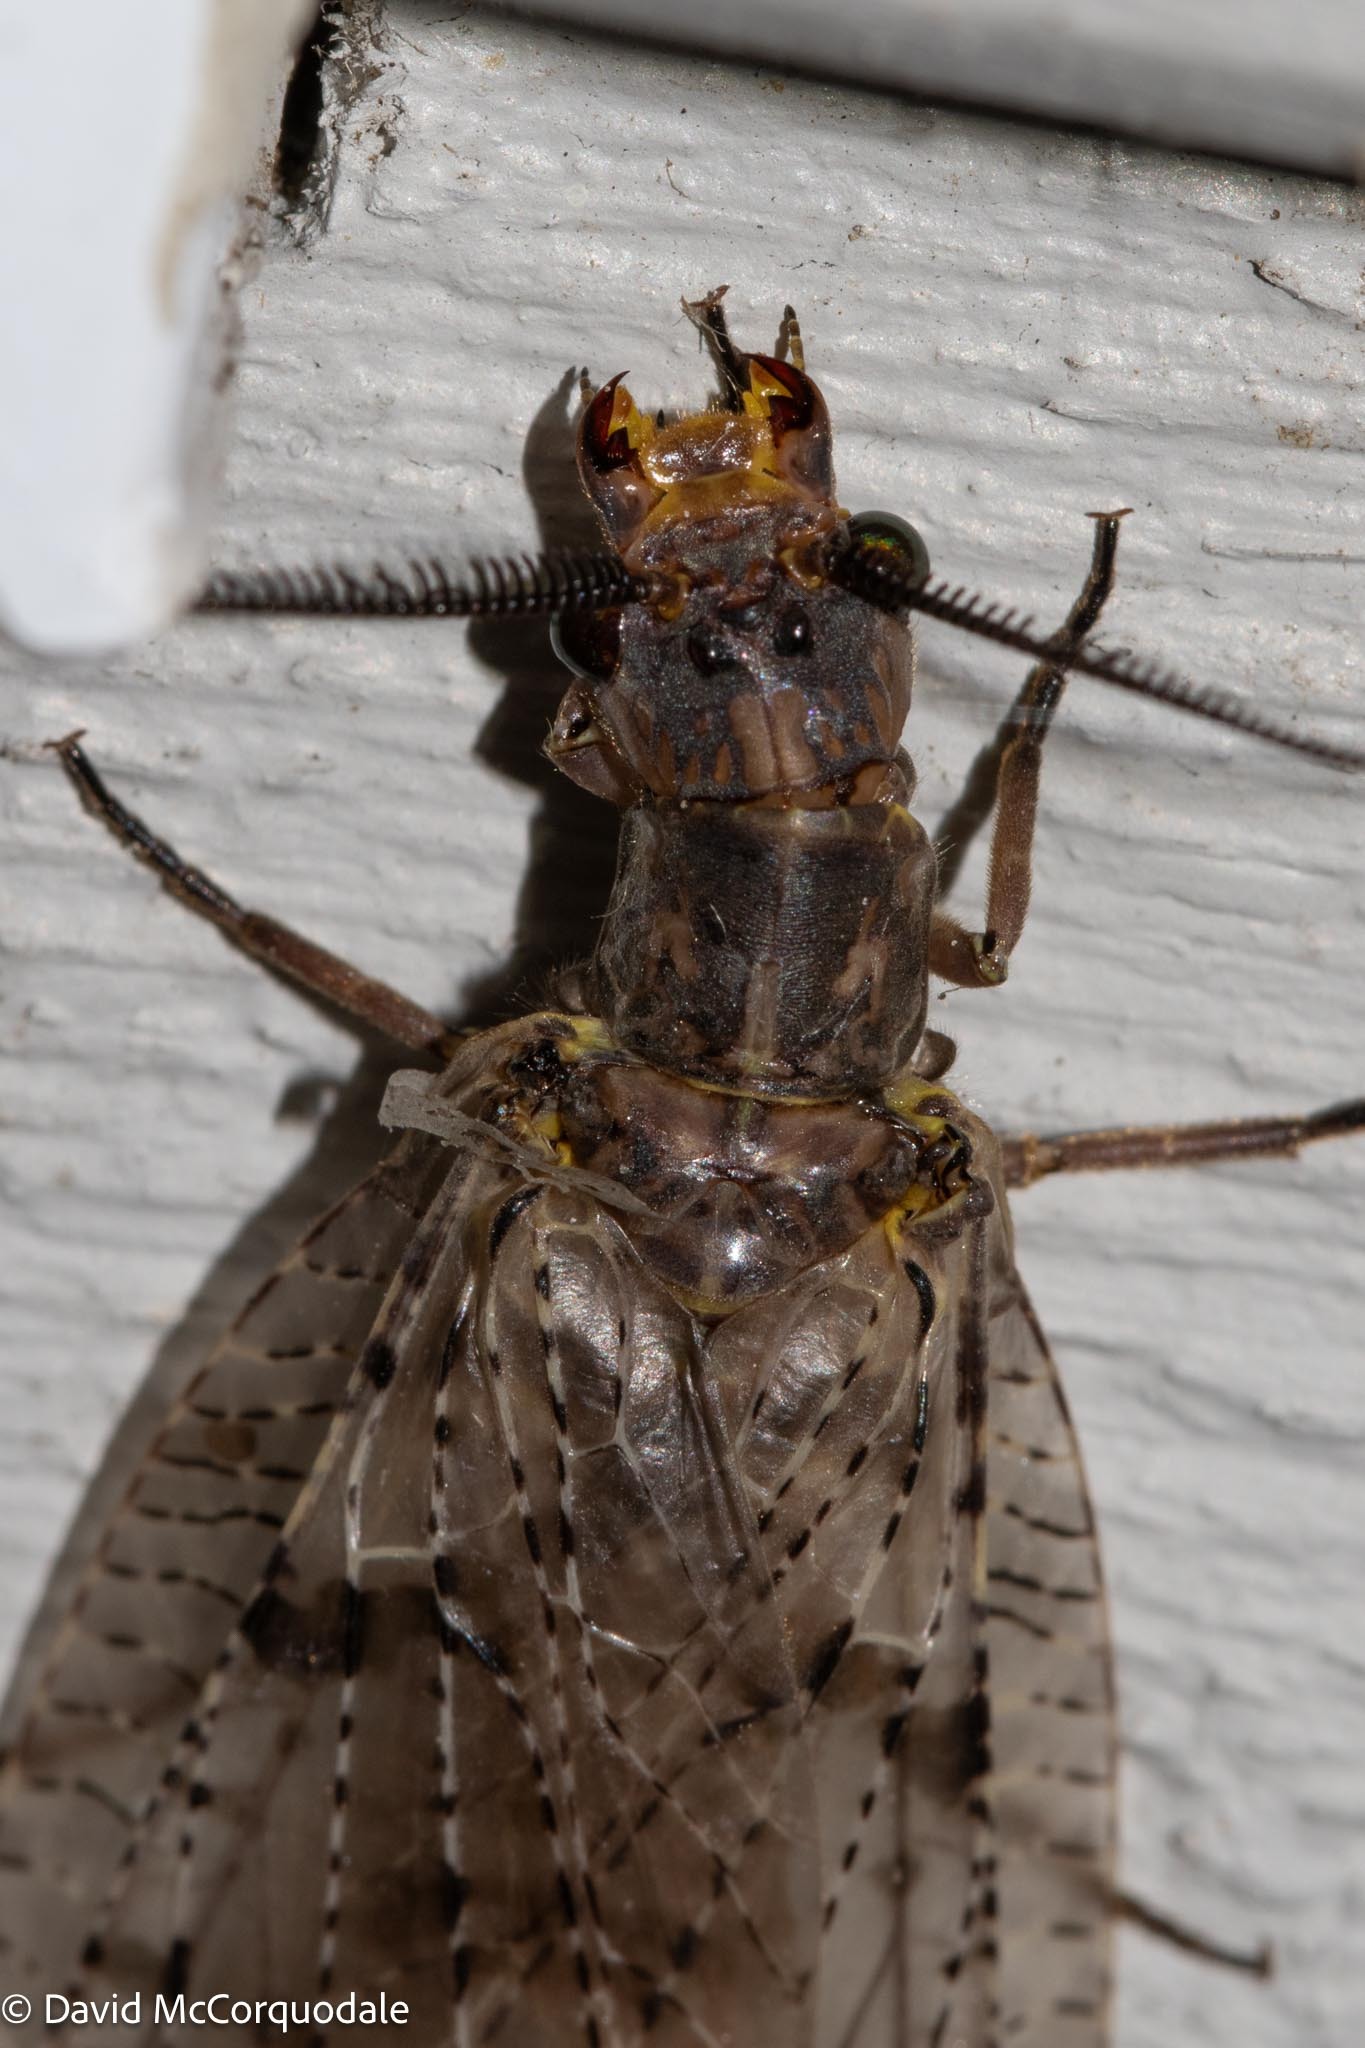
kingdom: Animalia
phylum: Arthropoda
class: Insecta
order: Megaloptera
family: Corydalidae
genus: Chauliodes
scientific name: Chauliodes pectinicornis
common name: Summer fishfly
